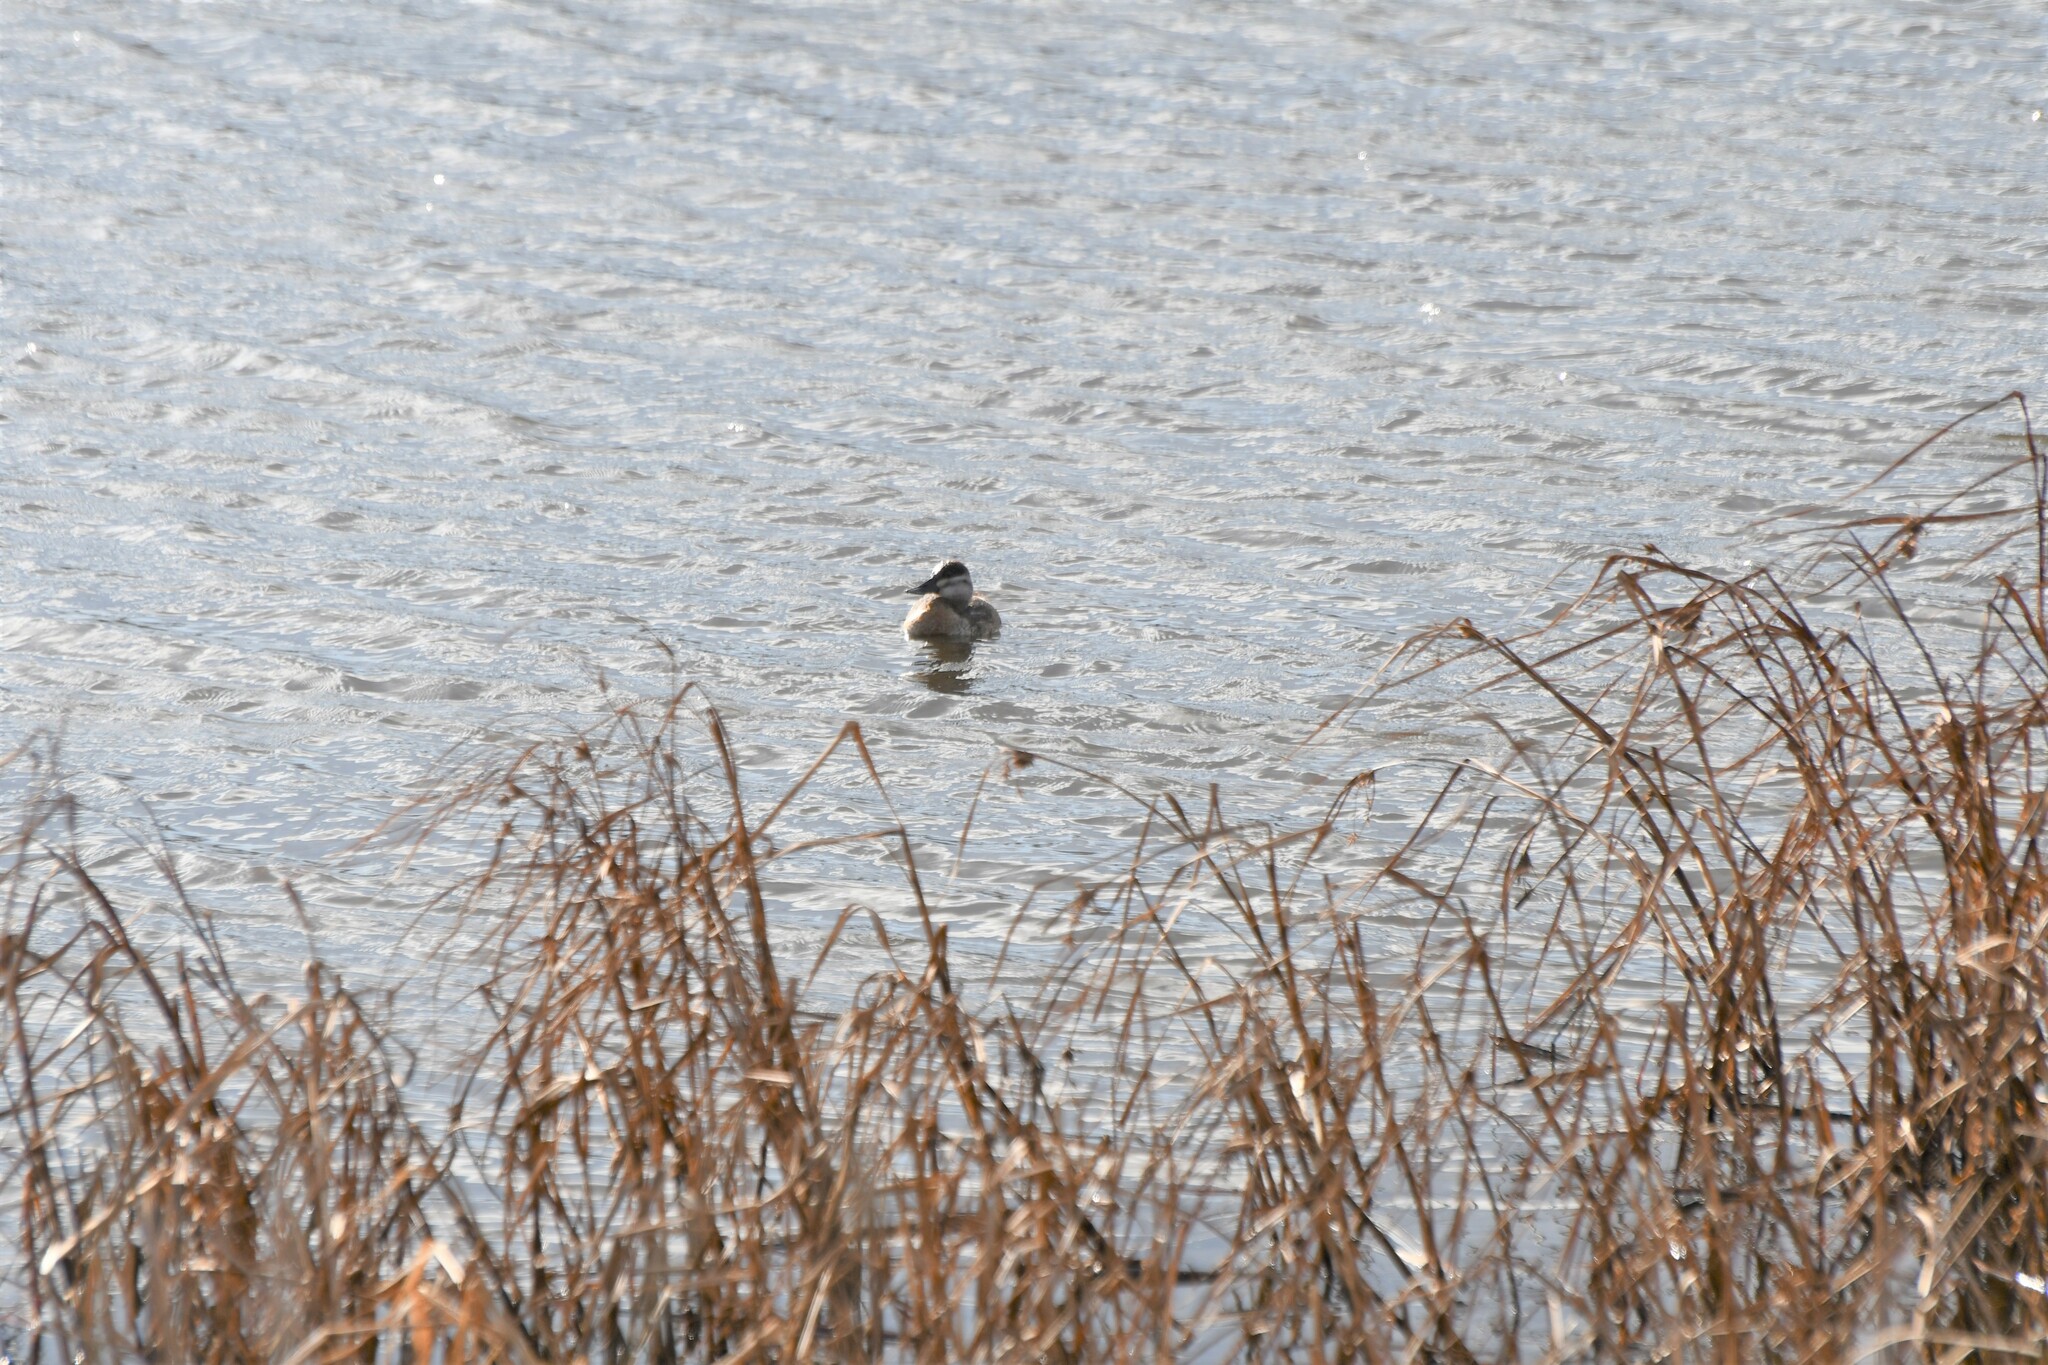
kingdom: Animalia
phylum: Chordata
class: Aves
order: Anseriformes
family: Anatidae
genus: Oxyura
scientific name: Oxyura jamaicensis
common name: Ruddy duck
